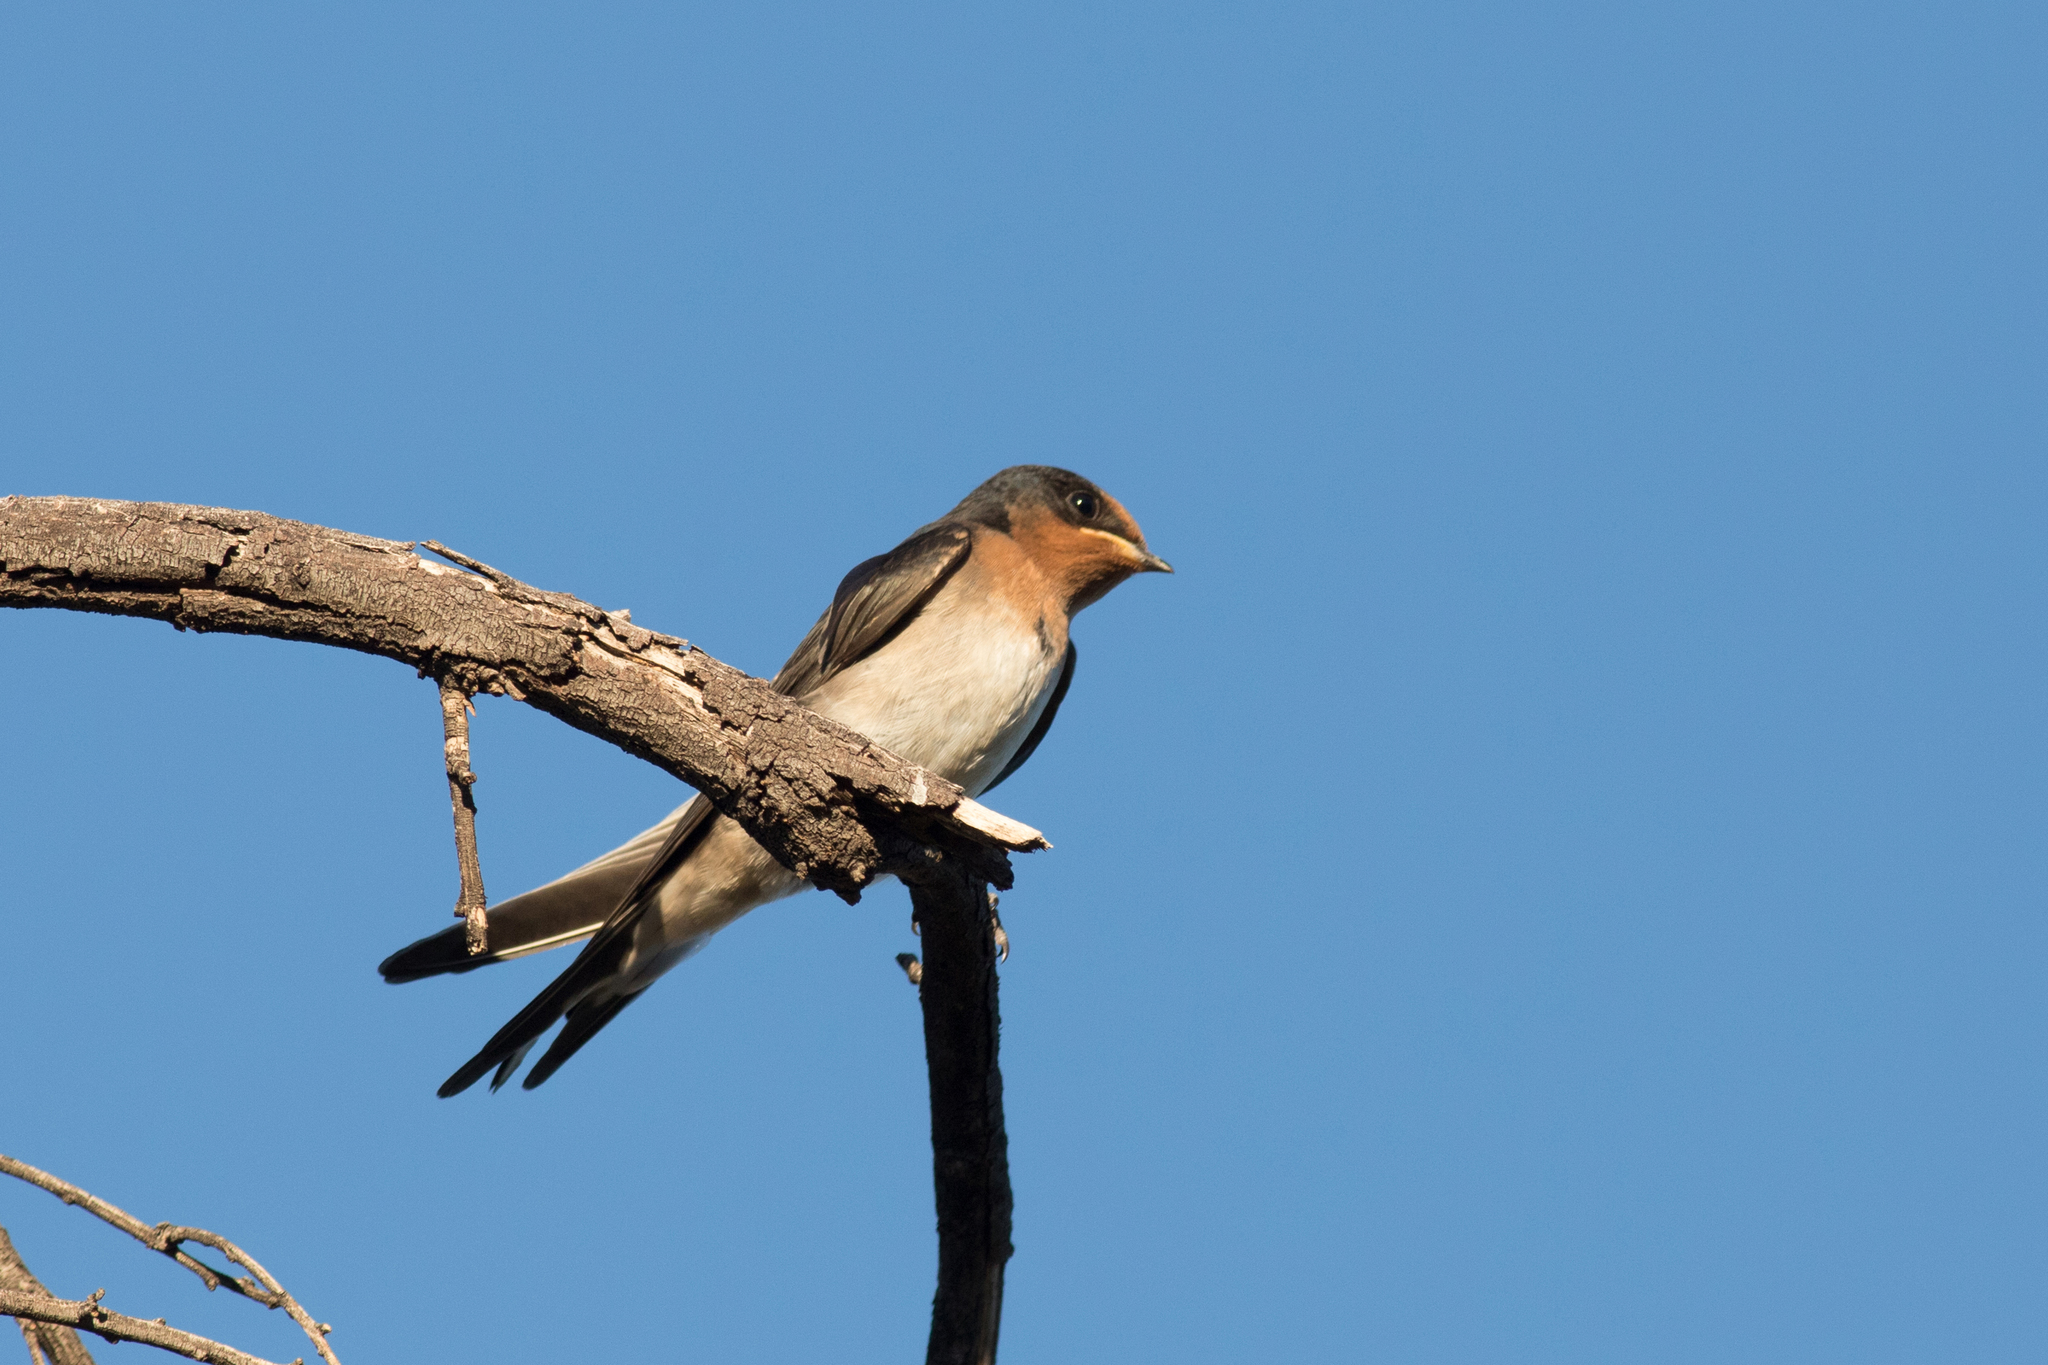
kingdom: Animalia
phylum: Chordata
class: Aves
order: Passeriformes
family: Hirundinidae
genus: Hirundo
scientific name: Hirundo neoxena
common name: Welcome swallow
